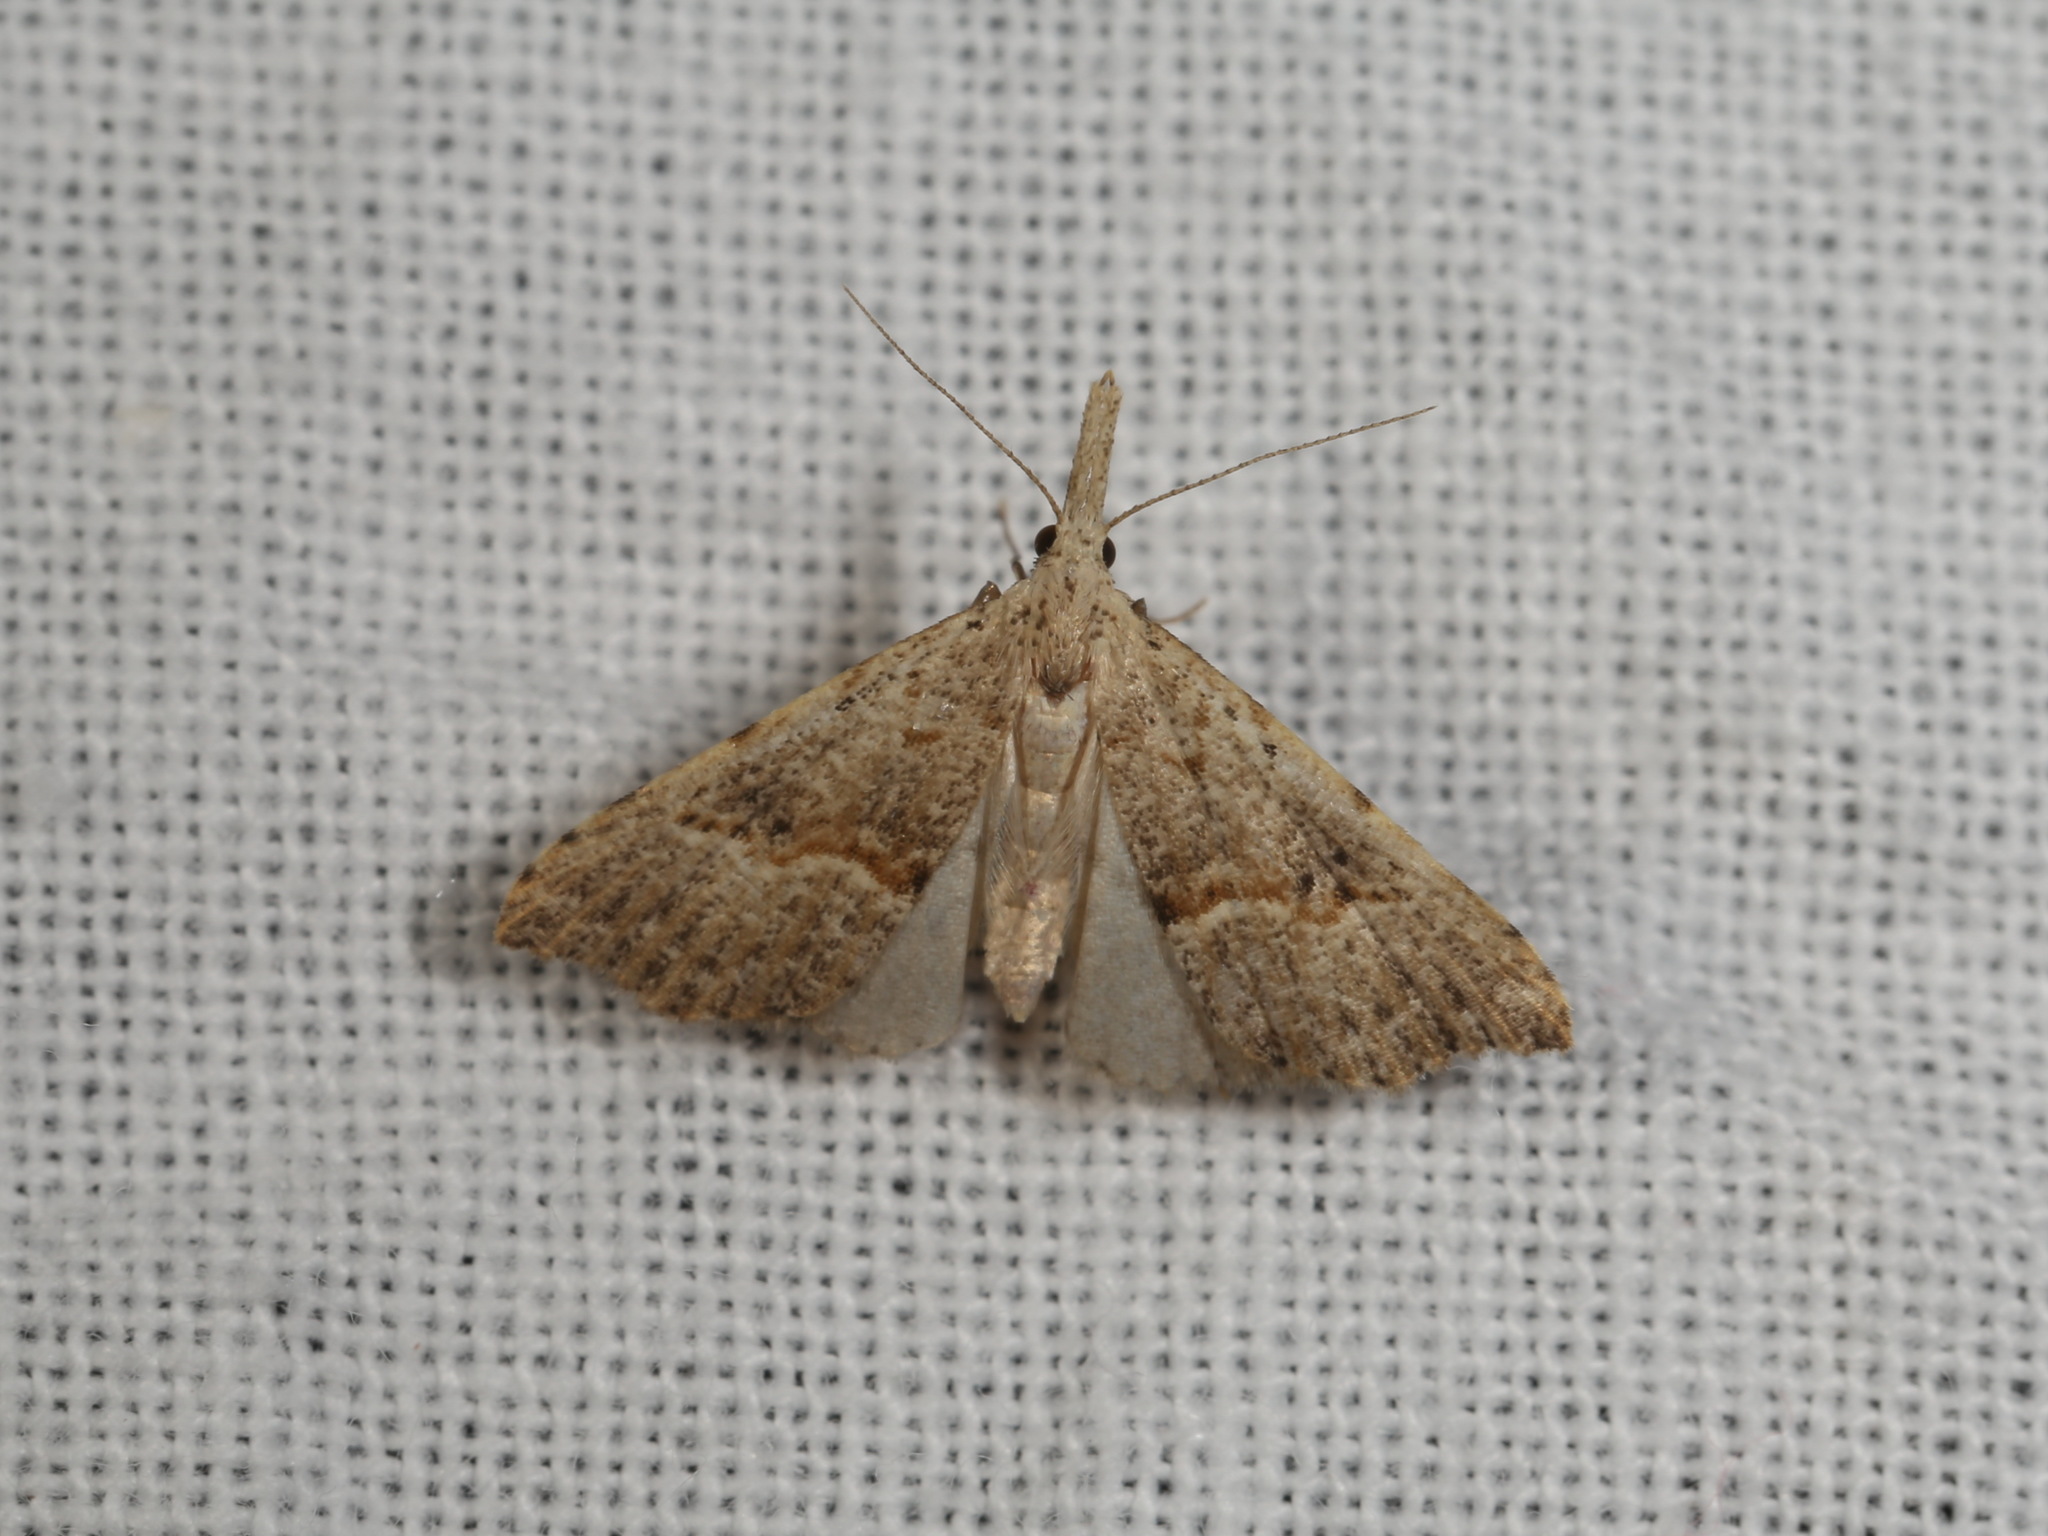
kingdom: Animalia
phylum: Arthropoda
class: Insecta
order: Lepidoptera
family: Erebidae
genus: Trigonistis
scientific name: Trigonistis asthenopa
